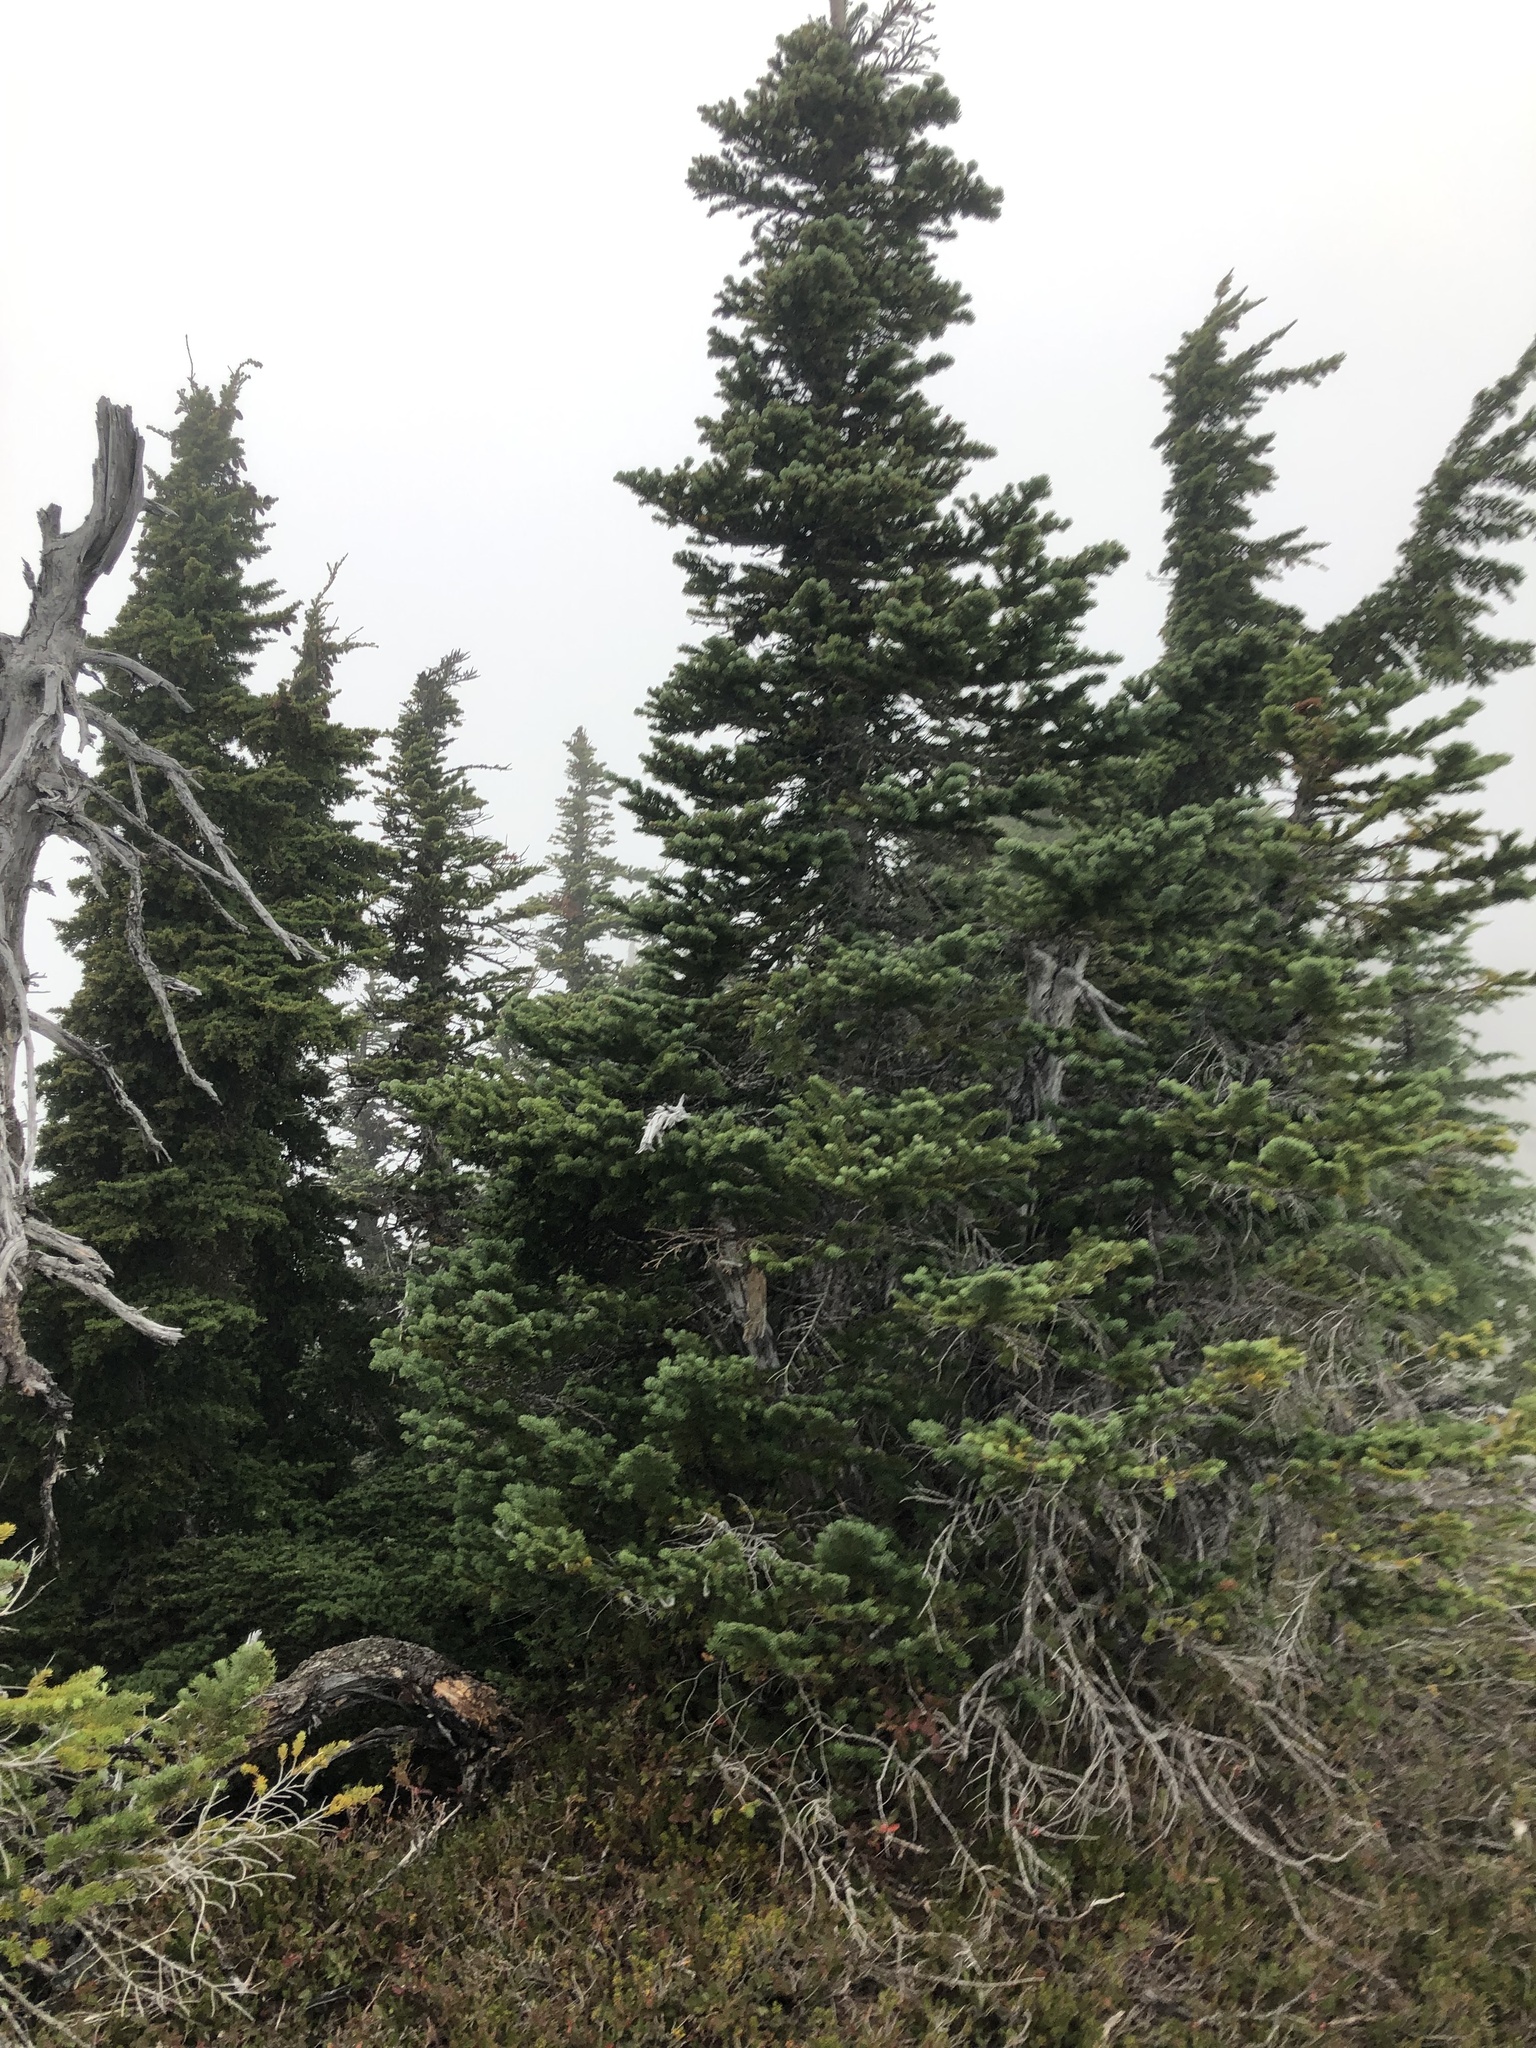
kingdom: Plantae
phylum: Tracheophyta
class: Pinopsida
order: Pinales
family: Pinaceae
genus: Abies
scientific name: Abies lasiocarpa
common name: Subalpine fir
